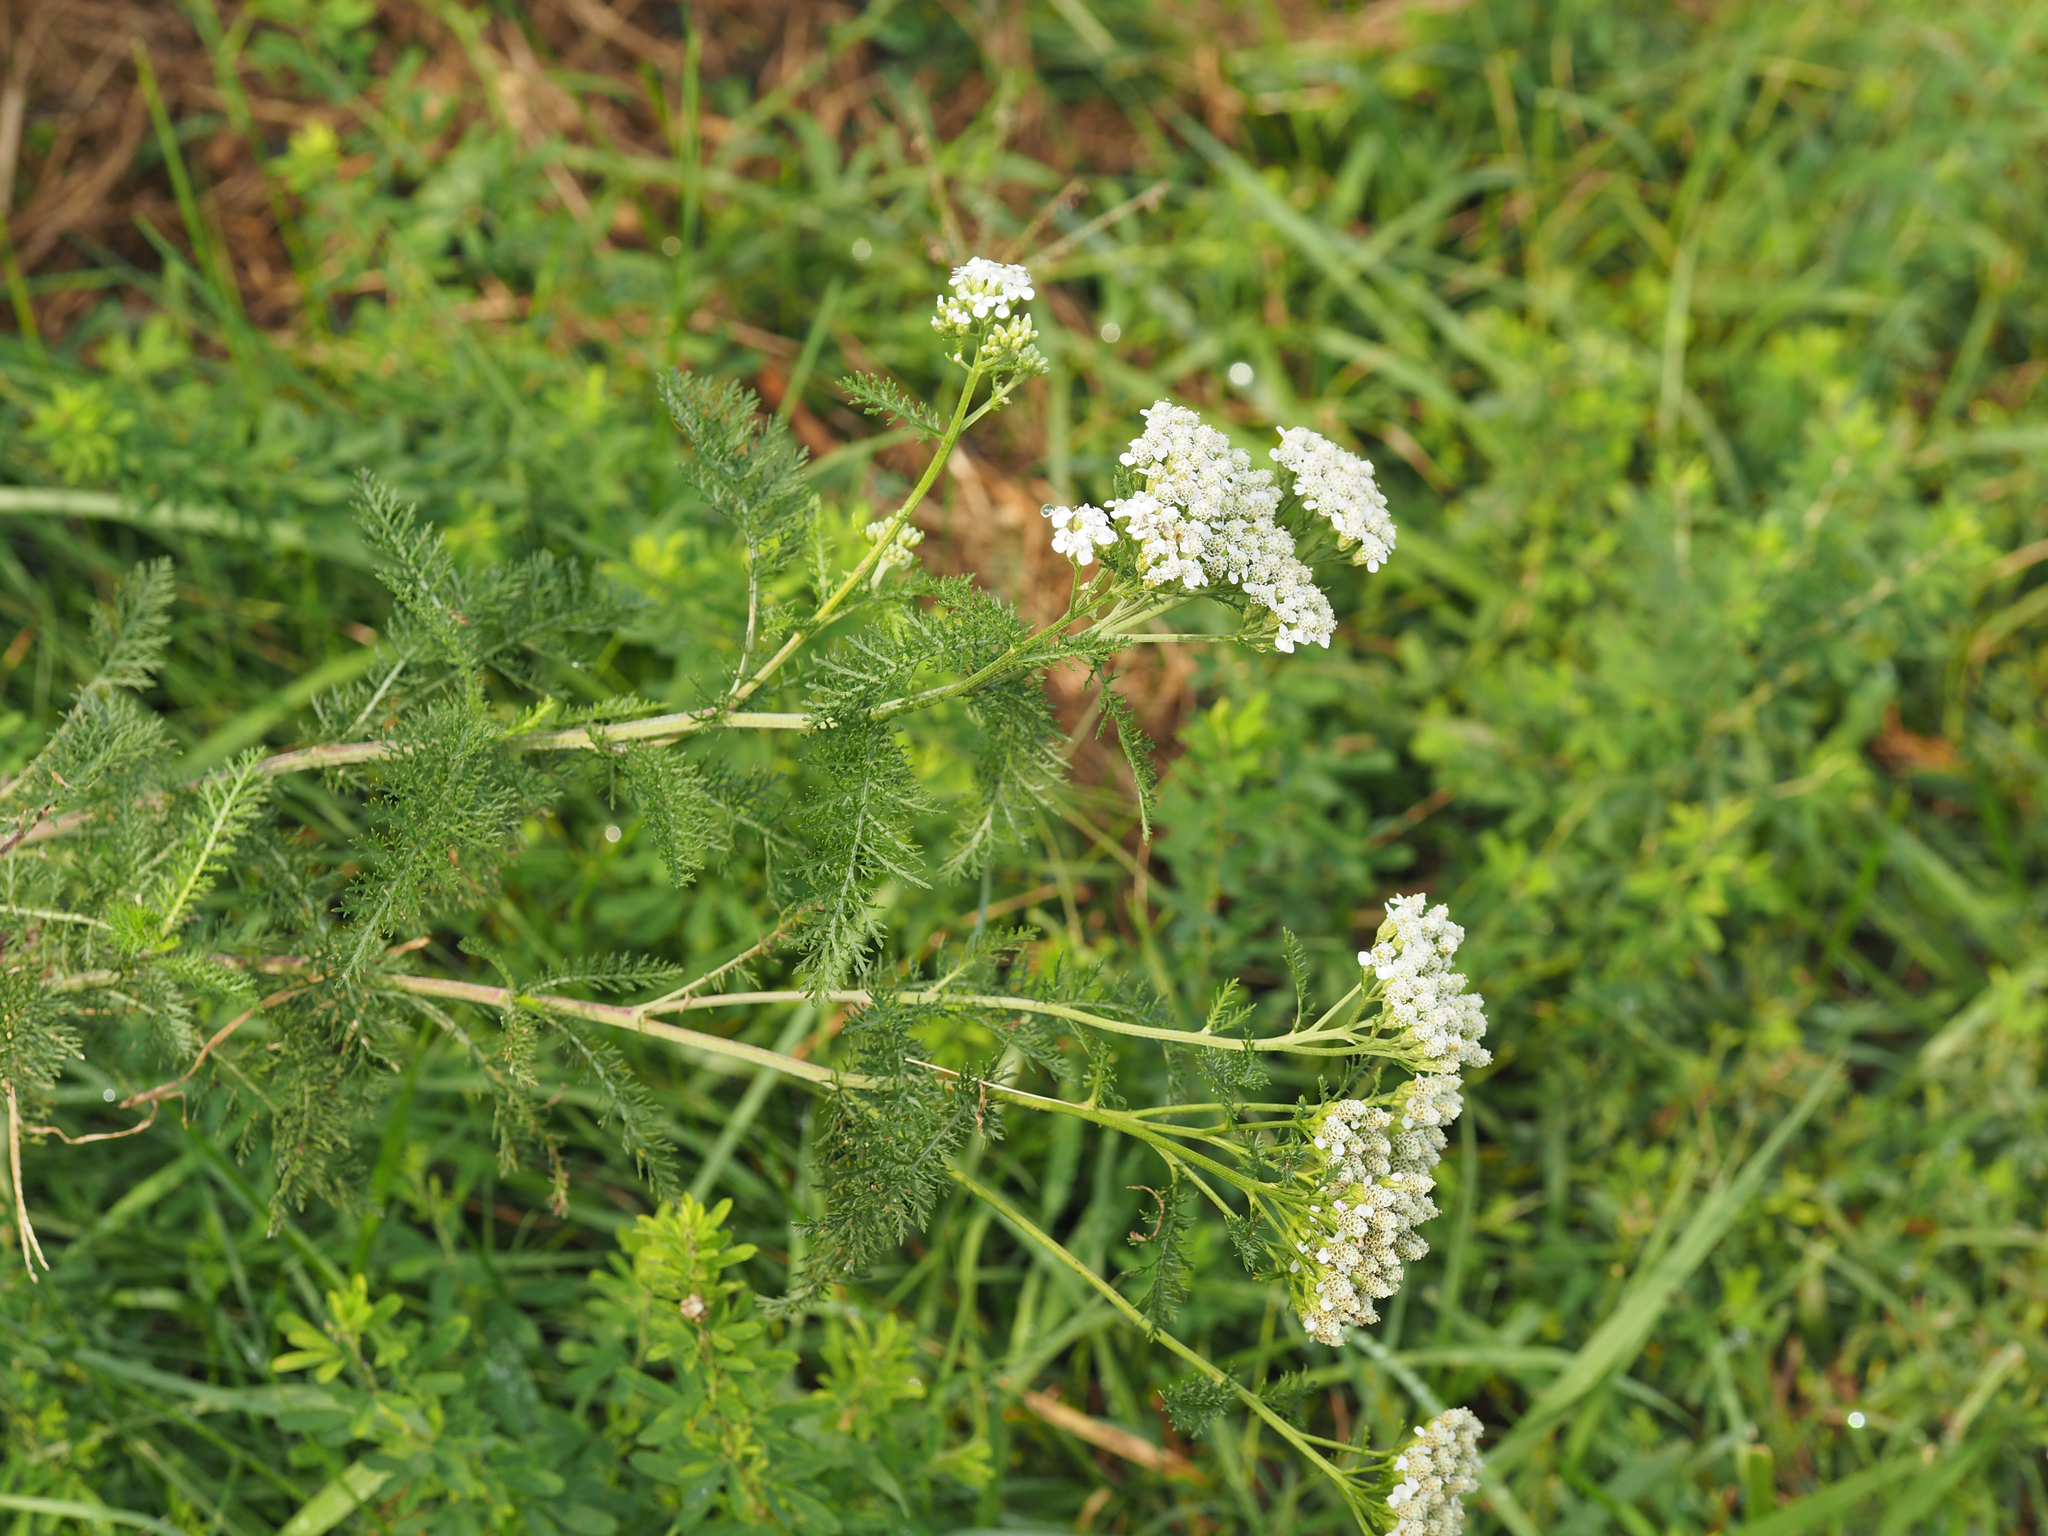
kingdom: Plantae
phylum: Tracheophyta
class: Magnoliopsida
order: Asterales
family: Asteraceae
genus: Achillea
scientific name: Achillea millefolium
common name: Yarrow
